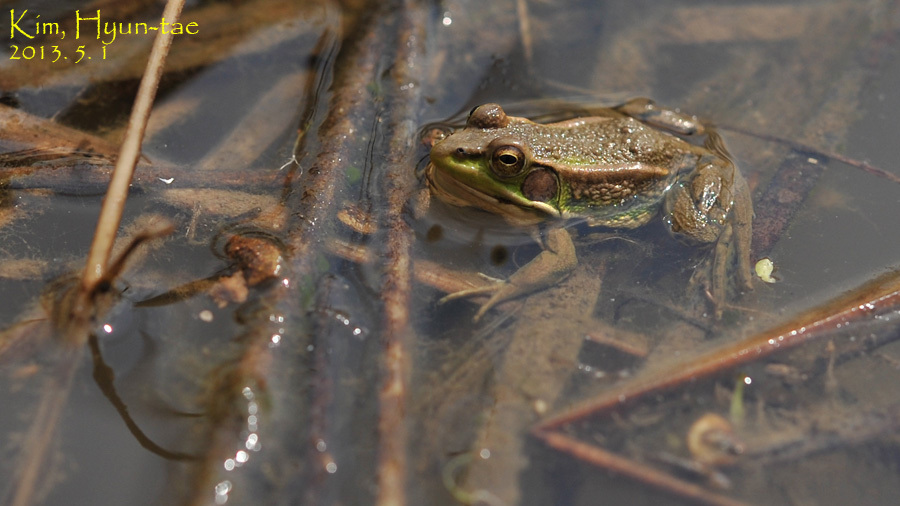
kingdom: Animalia
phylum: Chordata
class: Amphibia
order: Anura
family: Ranidae
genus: Pelophylax
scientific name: Pelophylax chosenicus
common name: Gold-spotted pond frog
